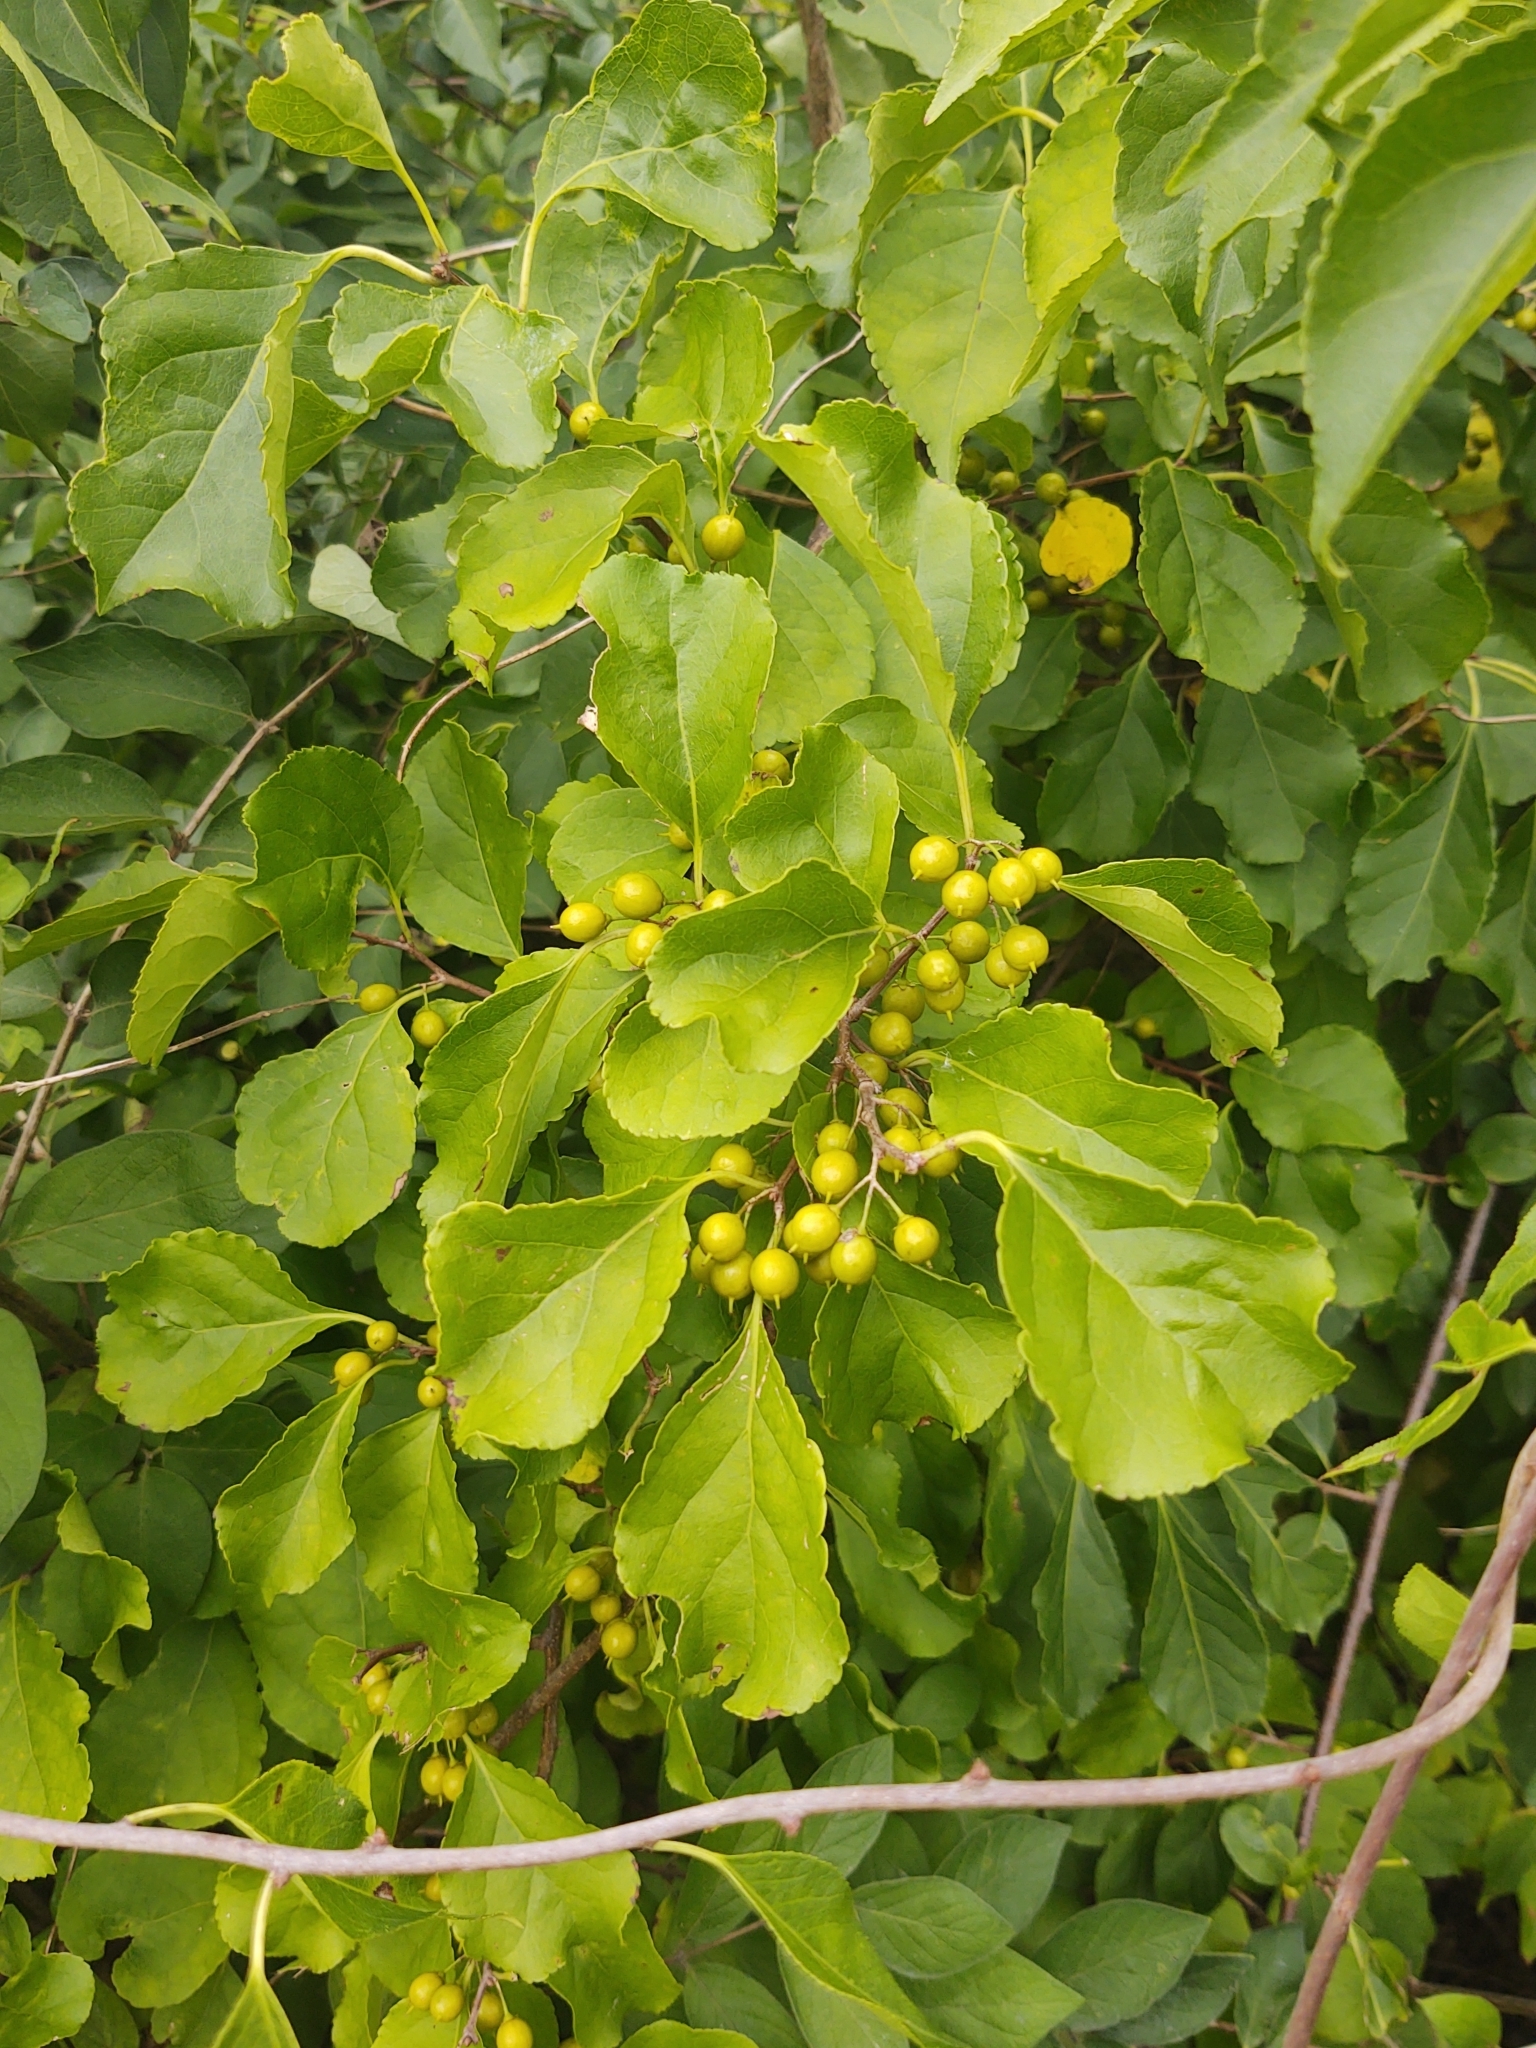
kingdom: Plantae
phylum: Tracheophyta
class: Magnoliopsida
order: Celastrales
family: Celastraceae
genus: Celastrus
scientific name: Celastrus orbiculatus
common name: Oriental bittersweet
